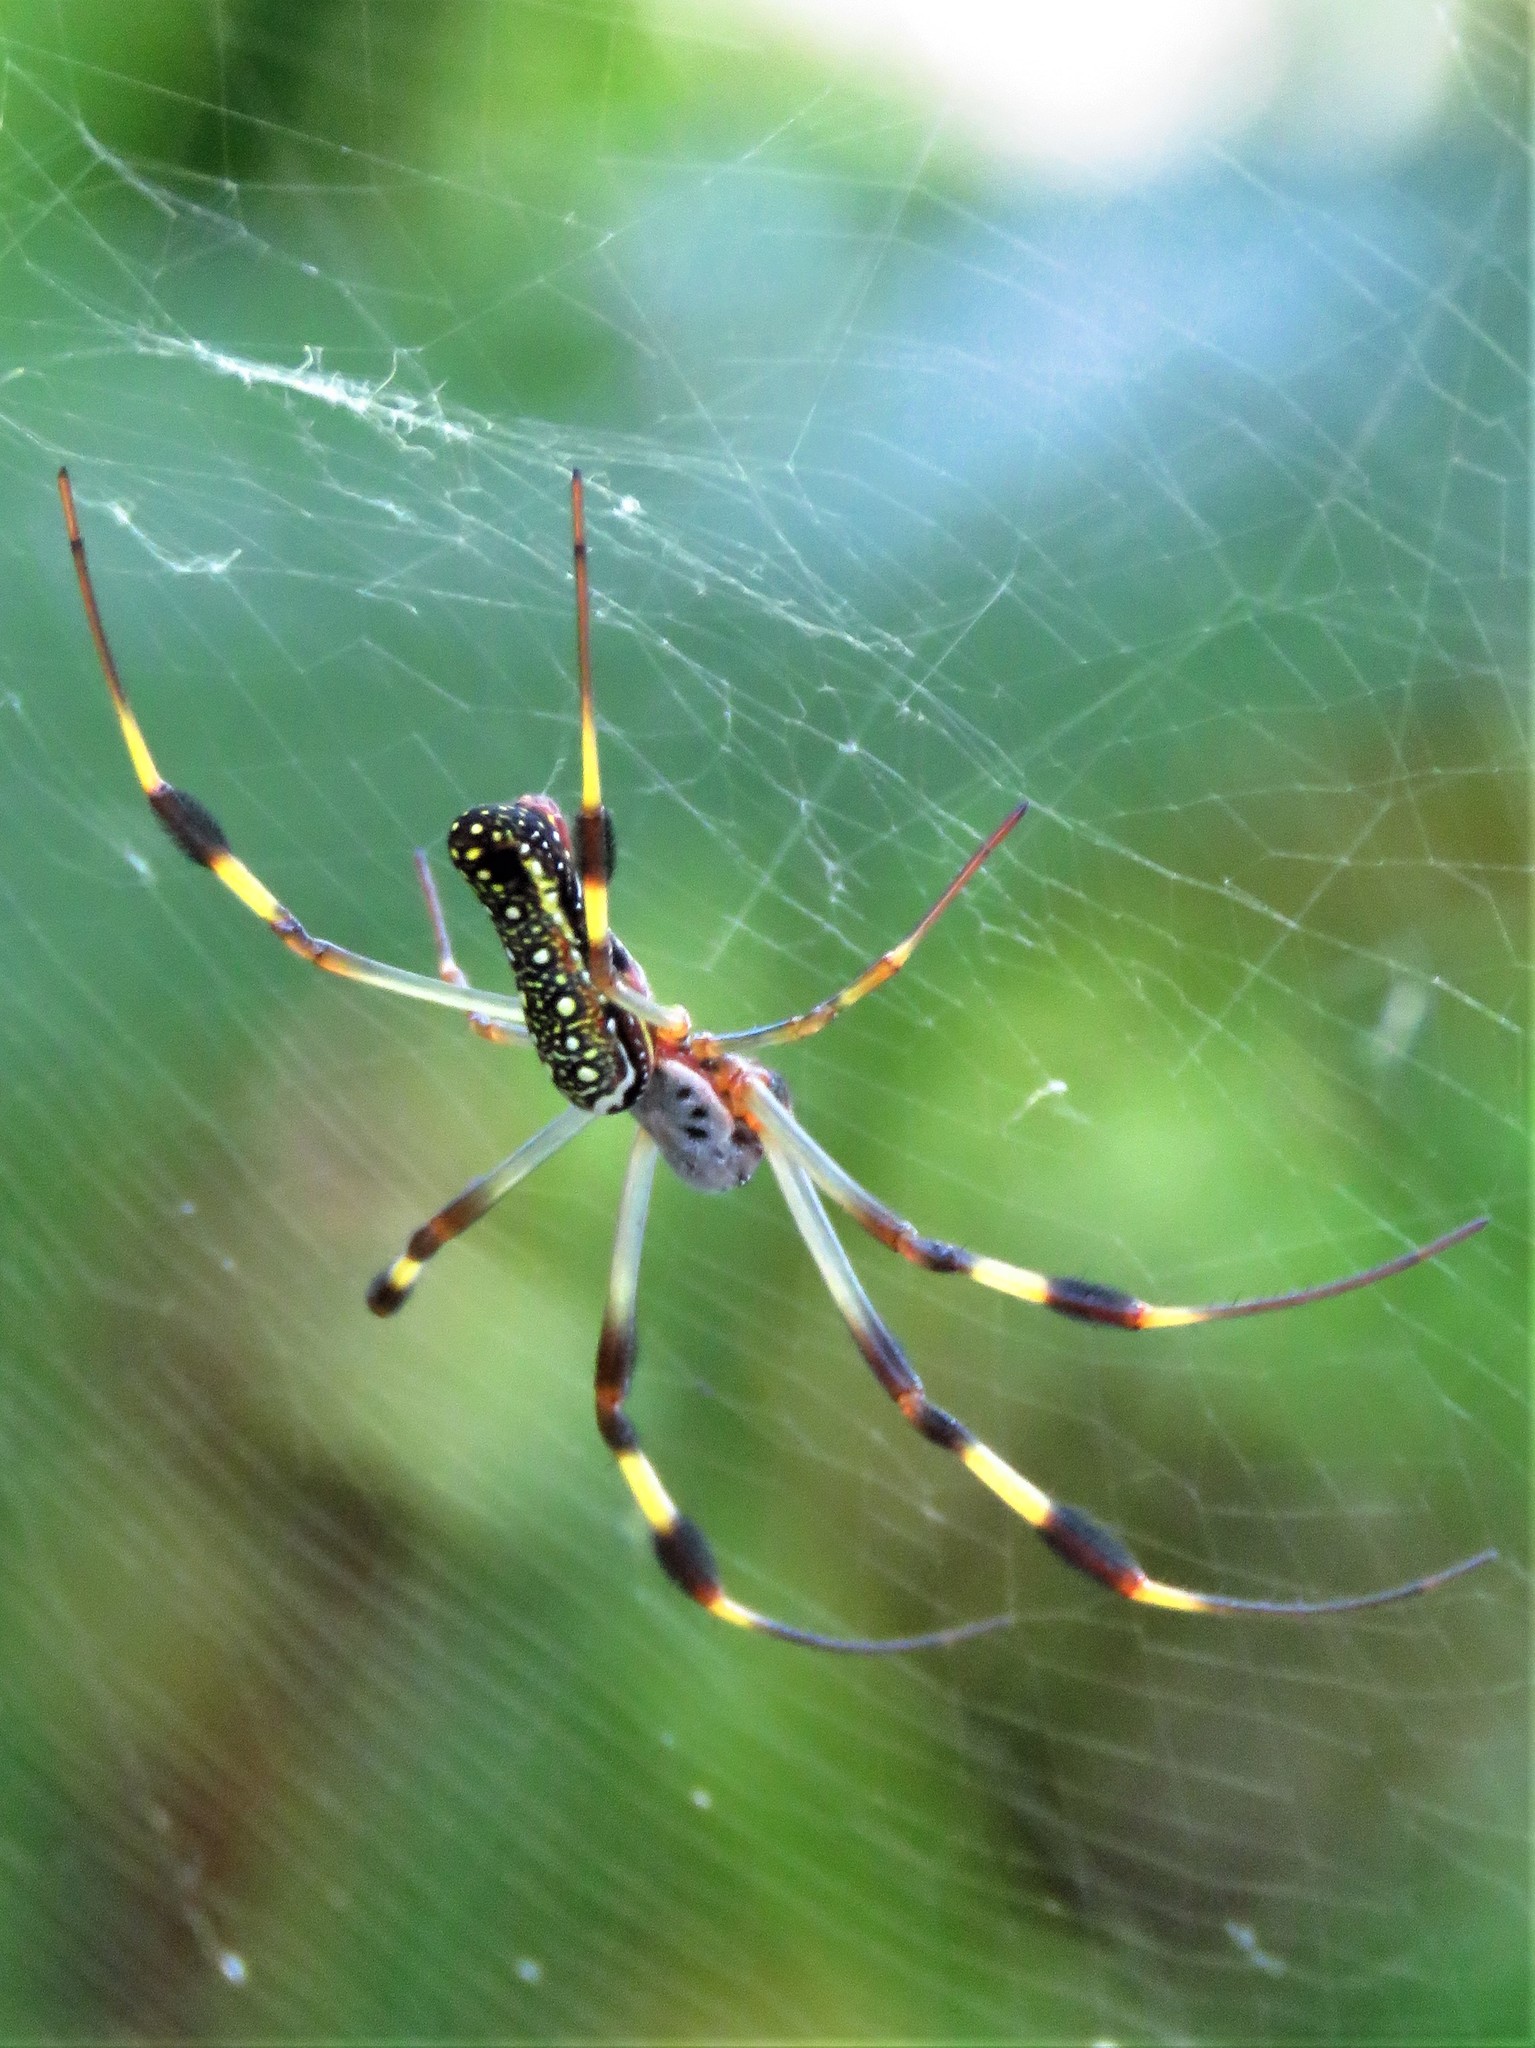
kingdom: Animalia
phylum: Arthropoda
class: Arachnida
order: Araneae
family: Araneidae
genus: Trichonephila
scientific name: Trichonephila clavipes
